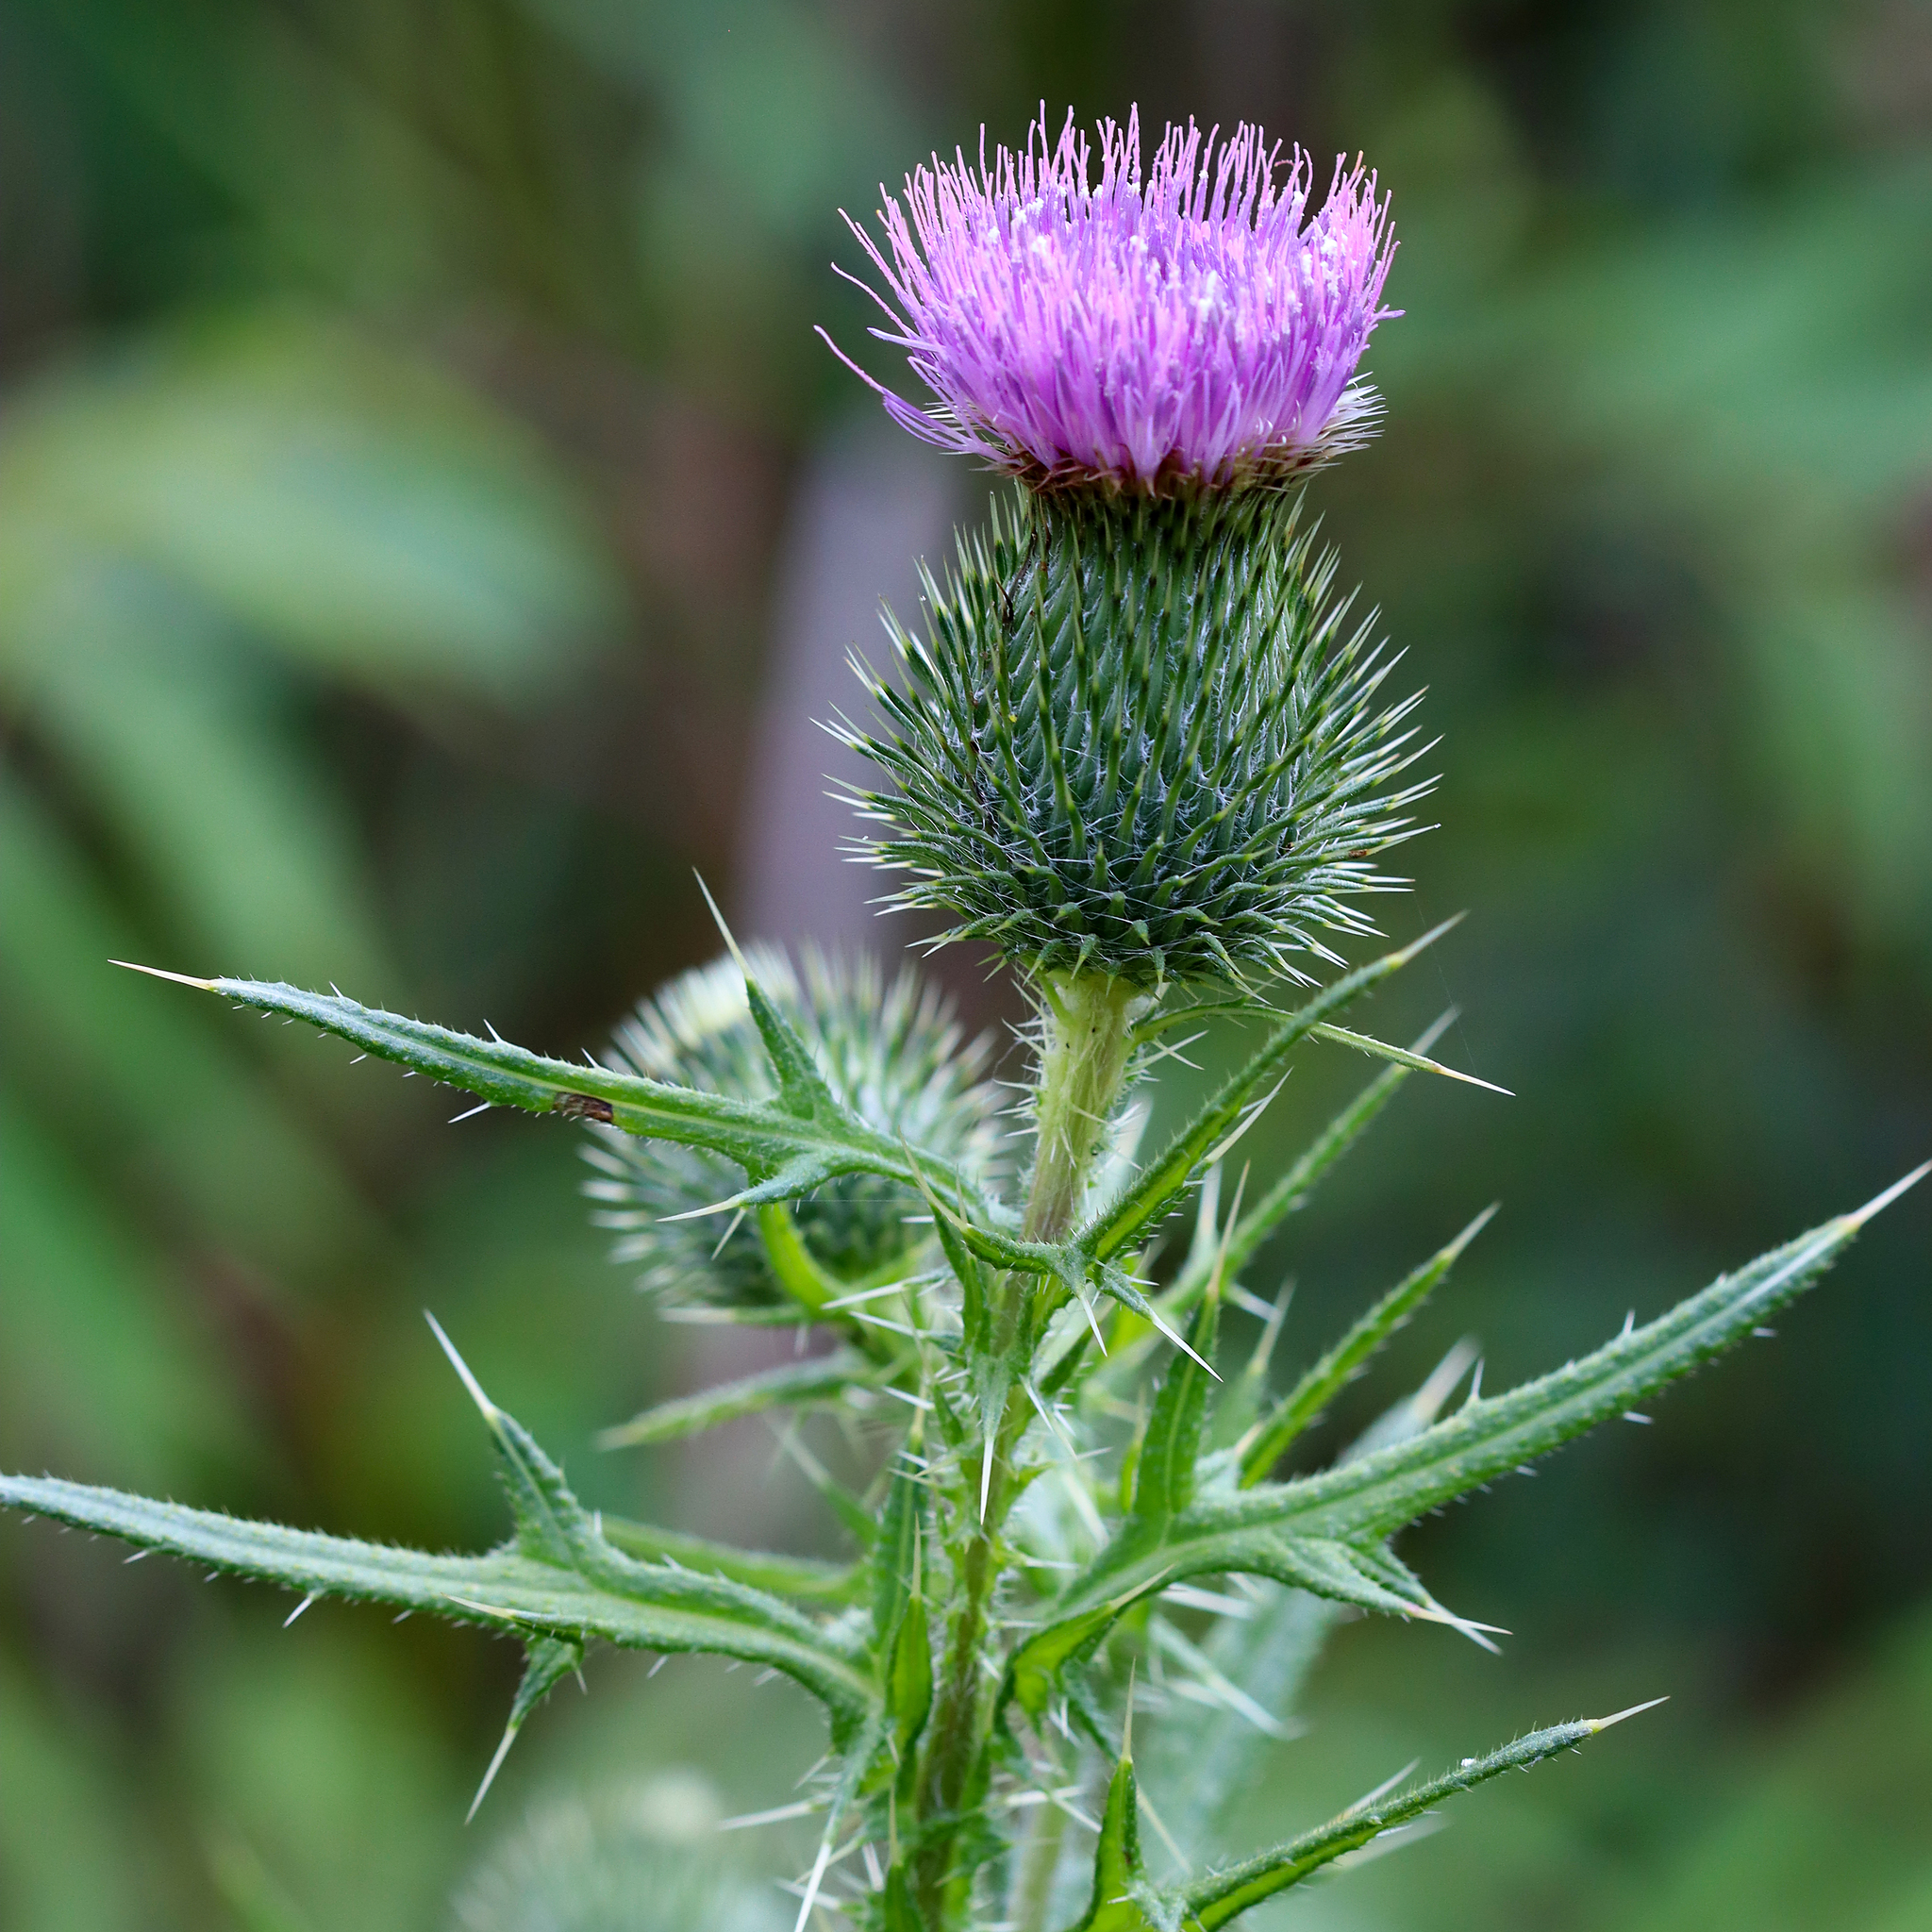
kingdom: Plantae
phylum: Tracheophyta
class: Magnoliopsida
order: Asterales
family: Asteraceae
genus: Cirsium
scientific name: Cirsium vulgare
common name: Bull thistle
